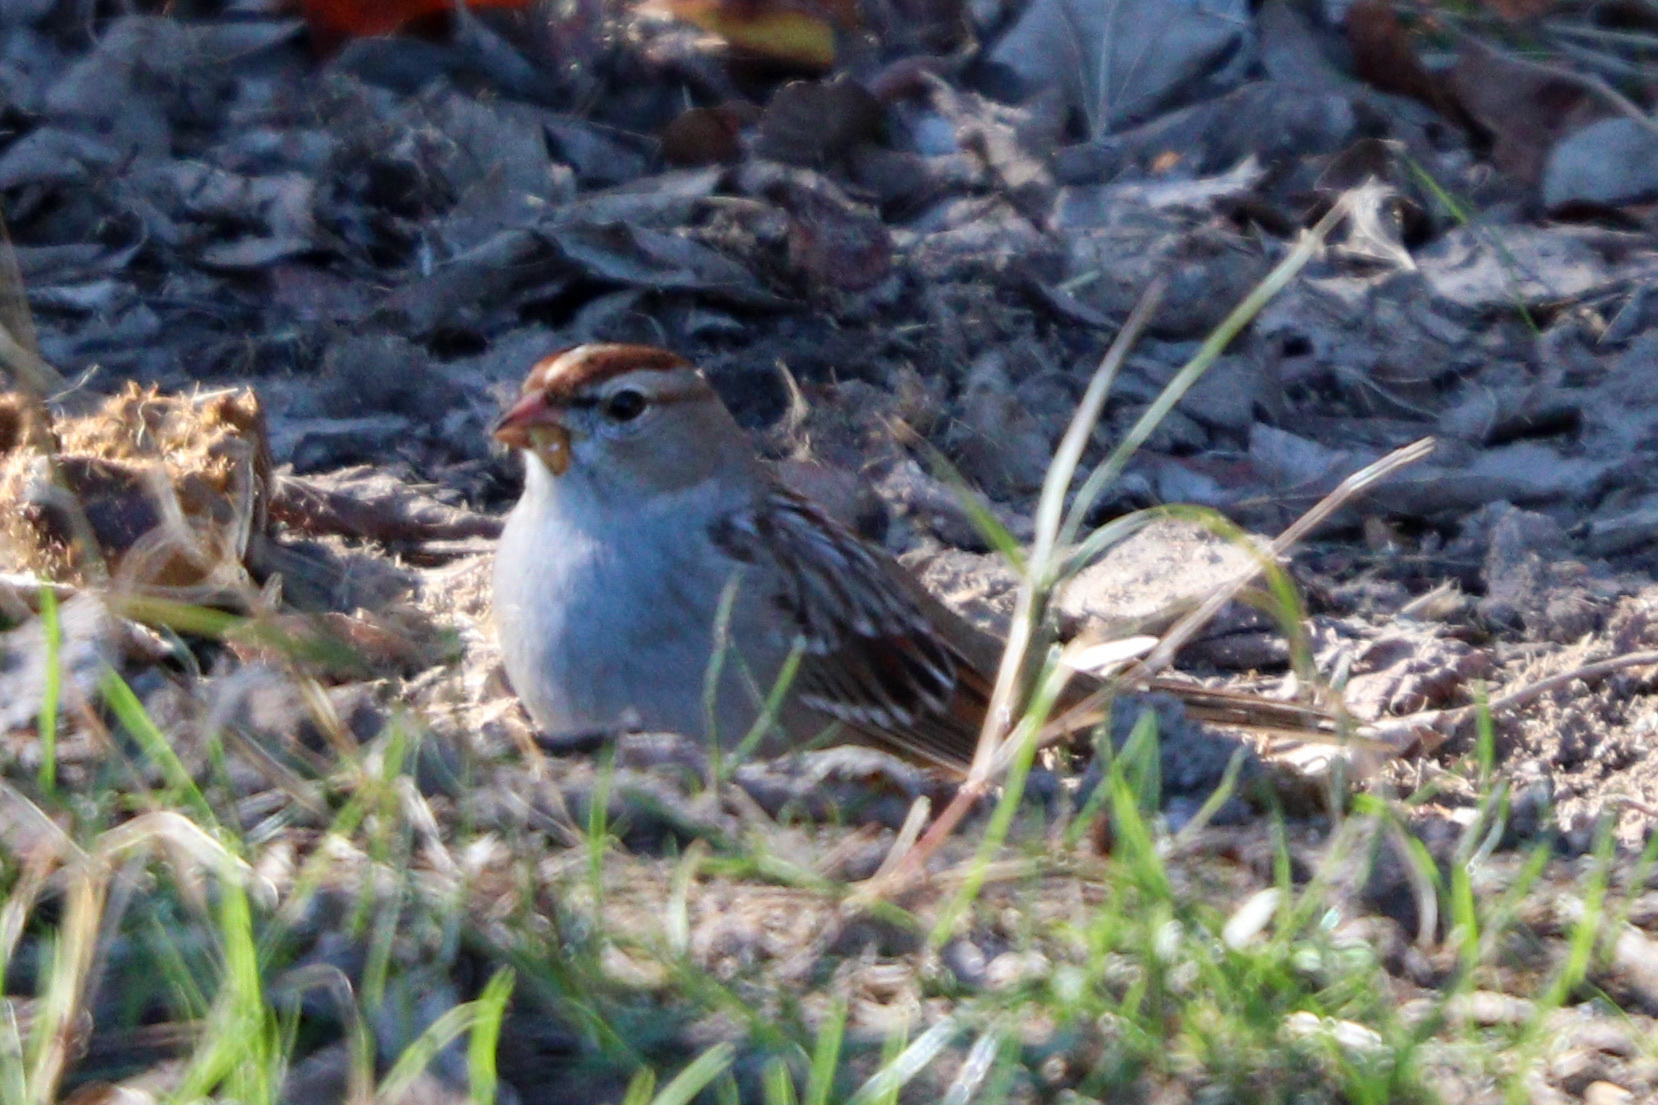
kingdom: Animalia
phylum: Chordata
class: Aves
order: Passeriformes
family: Passerellidae
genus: Zonotrichia
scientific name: Zonotrichia leucophrys
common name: White-crowned sparrow
